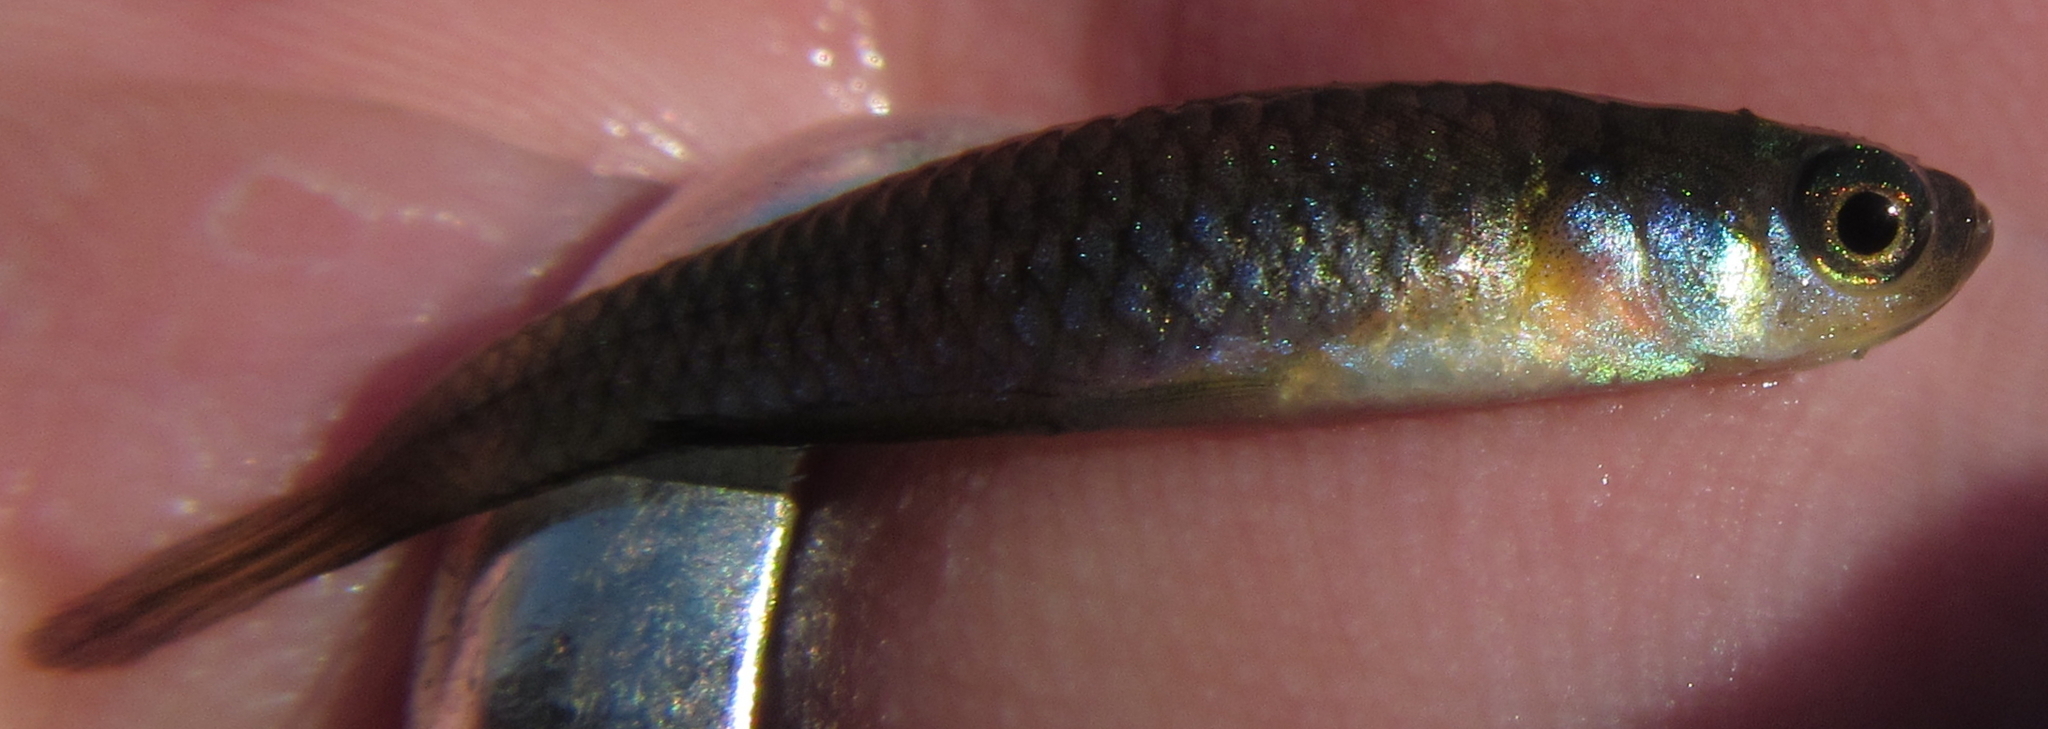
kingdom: Animalia
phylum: Chordata
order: Cyprinodontiformes
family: Poeciliidae
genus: Micropanchax
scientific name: Micropanchax johnstoni
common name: Johnston's topminnow
